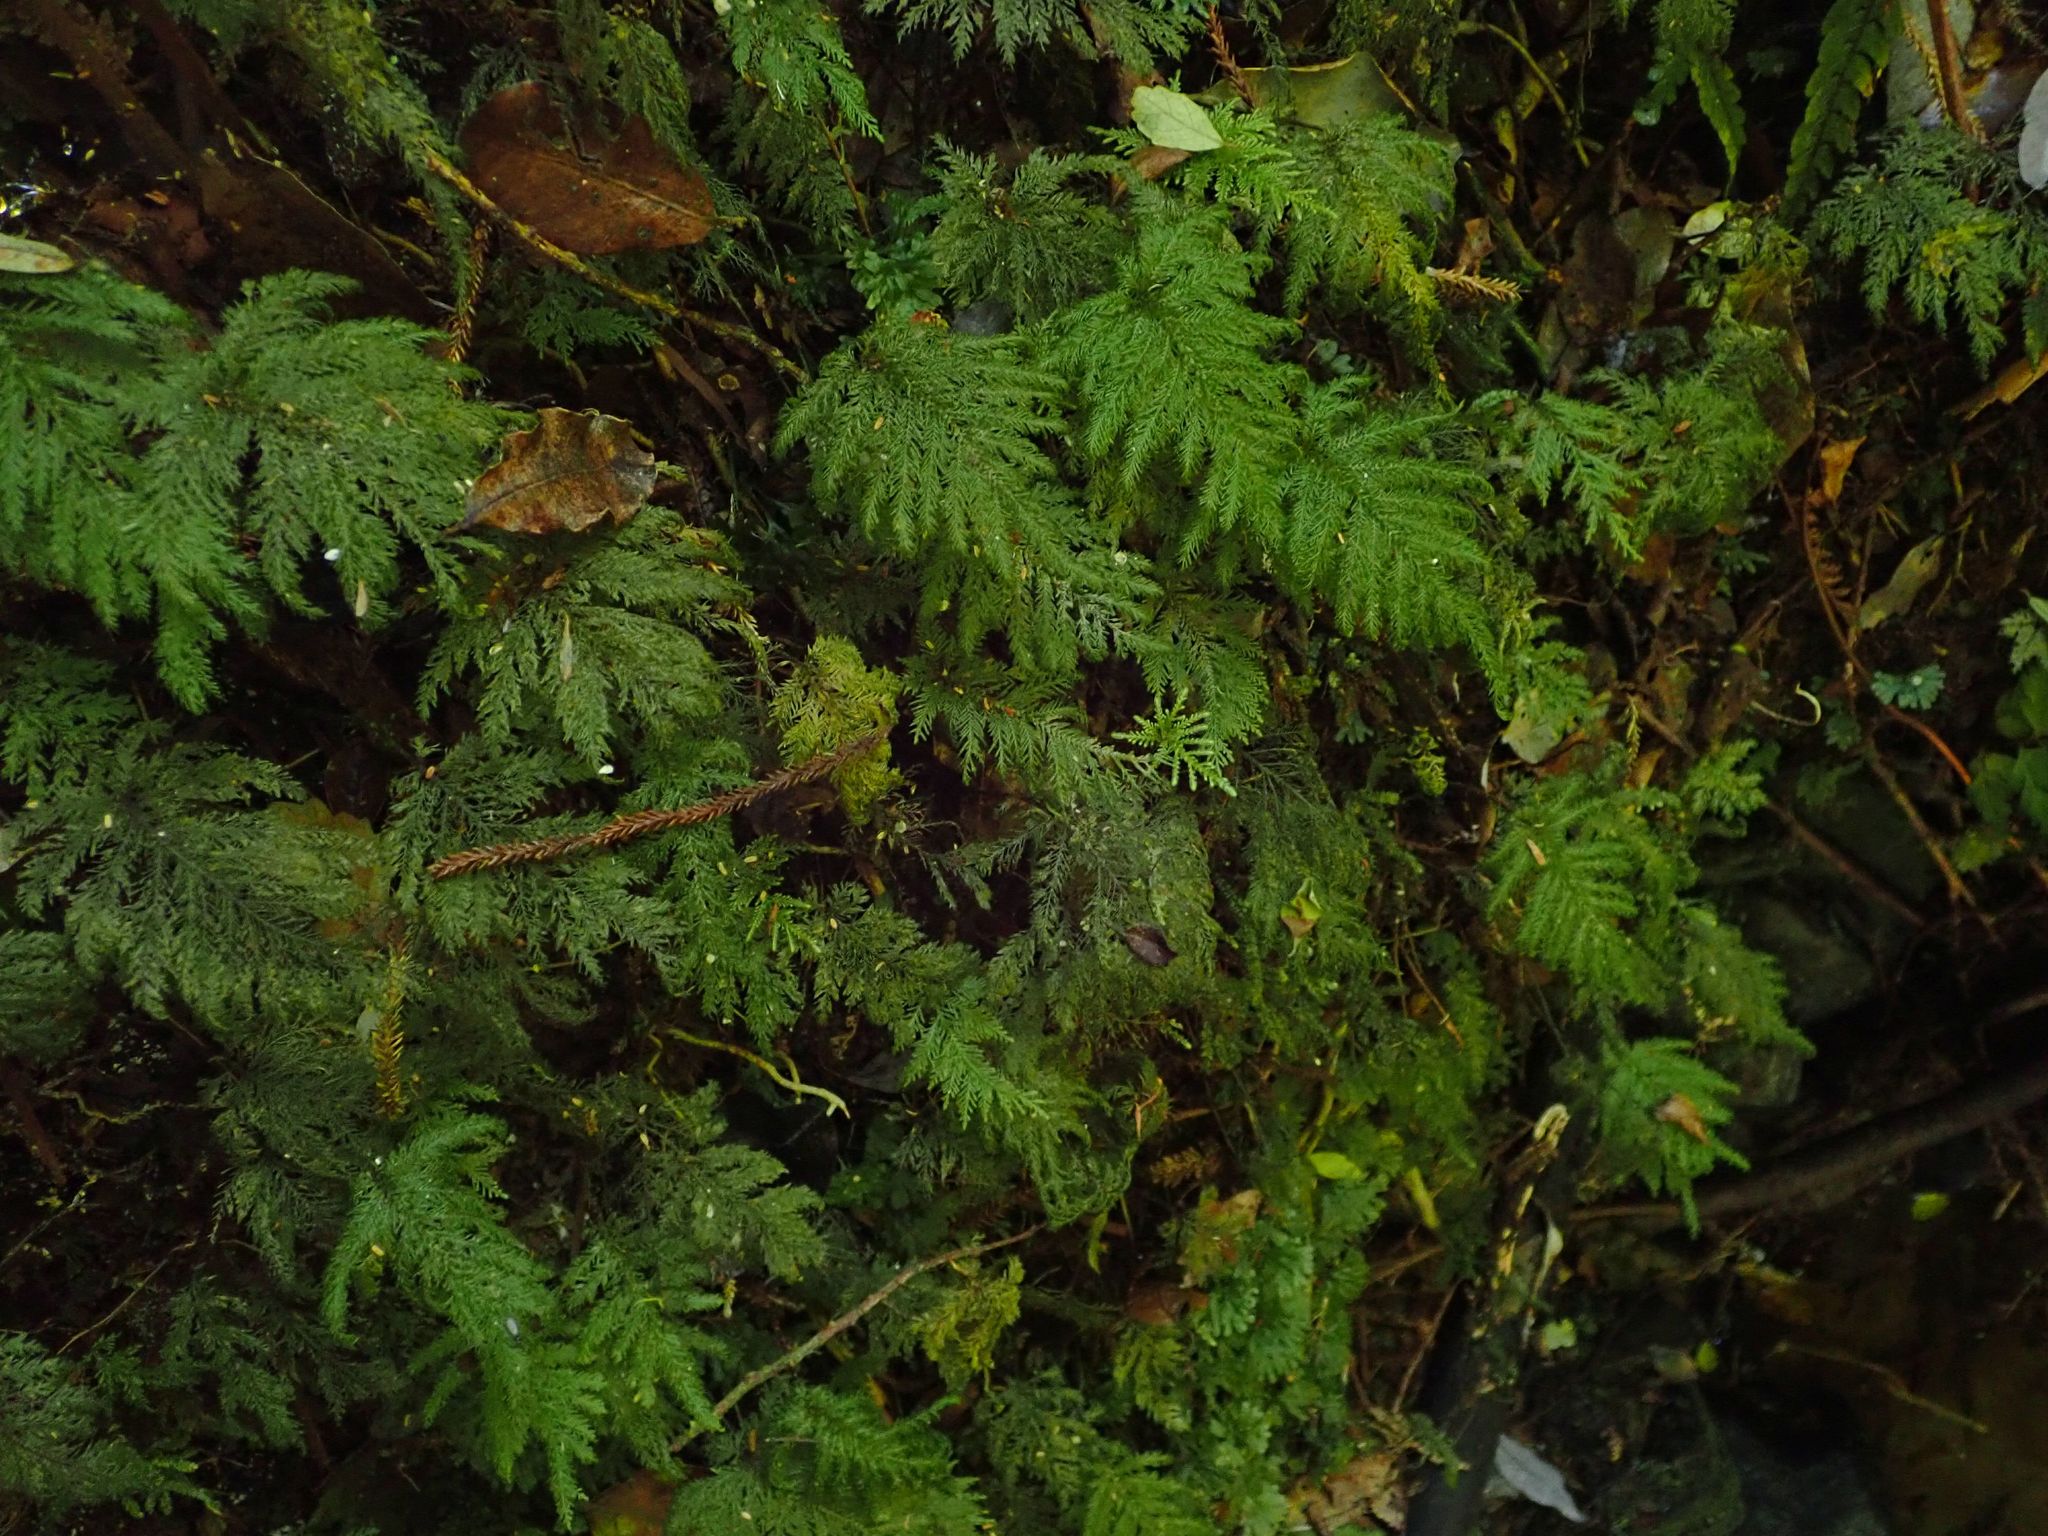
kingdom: Plantae
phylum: Bryophyta
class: Bryopsida
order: Hypopterygiales
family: Hypopterygiaceae
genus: Dendrohypopterygium
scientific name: Dendrohypopterygium filiculiforme
